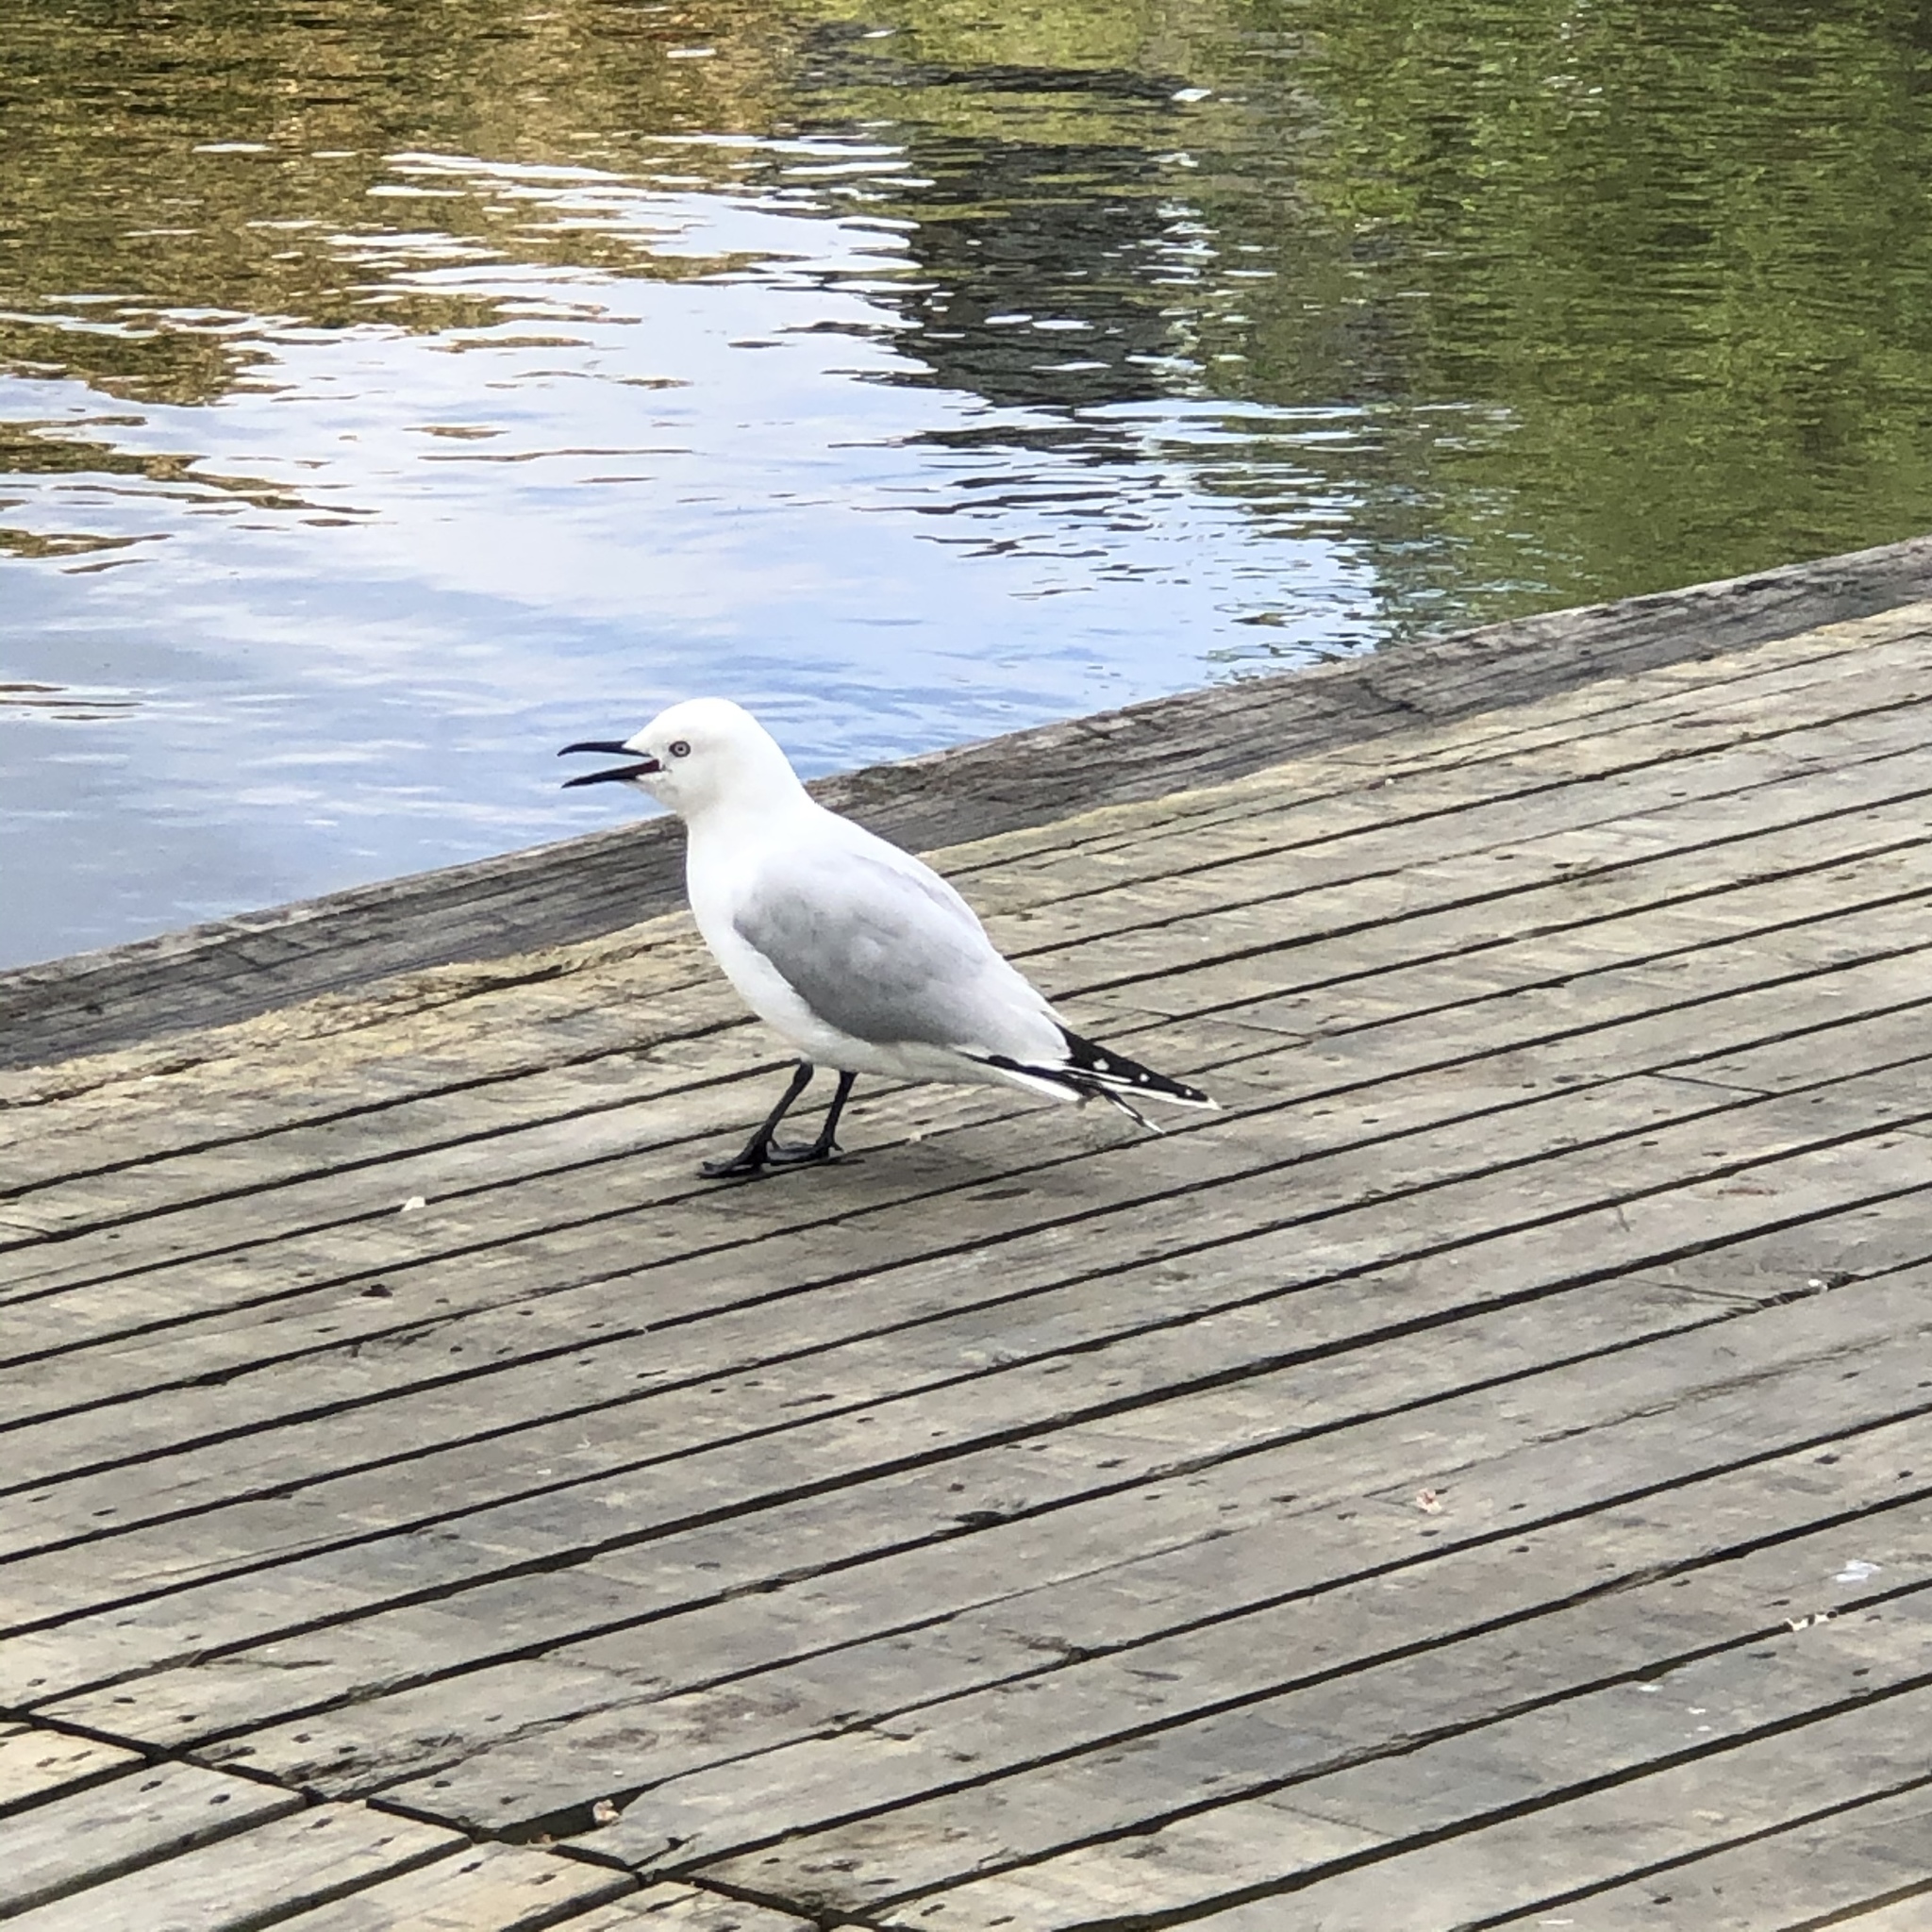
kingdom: Animalia
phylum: Chordata
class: Aves
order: Charadriiformes
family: Laridae
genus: Chroicocephalus
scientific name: Chroicocephalus bulleri
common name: Black-billed gull
